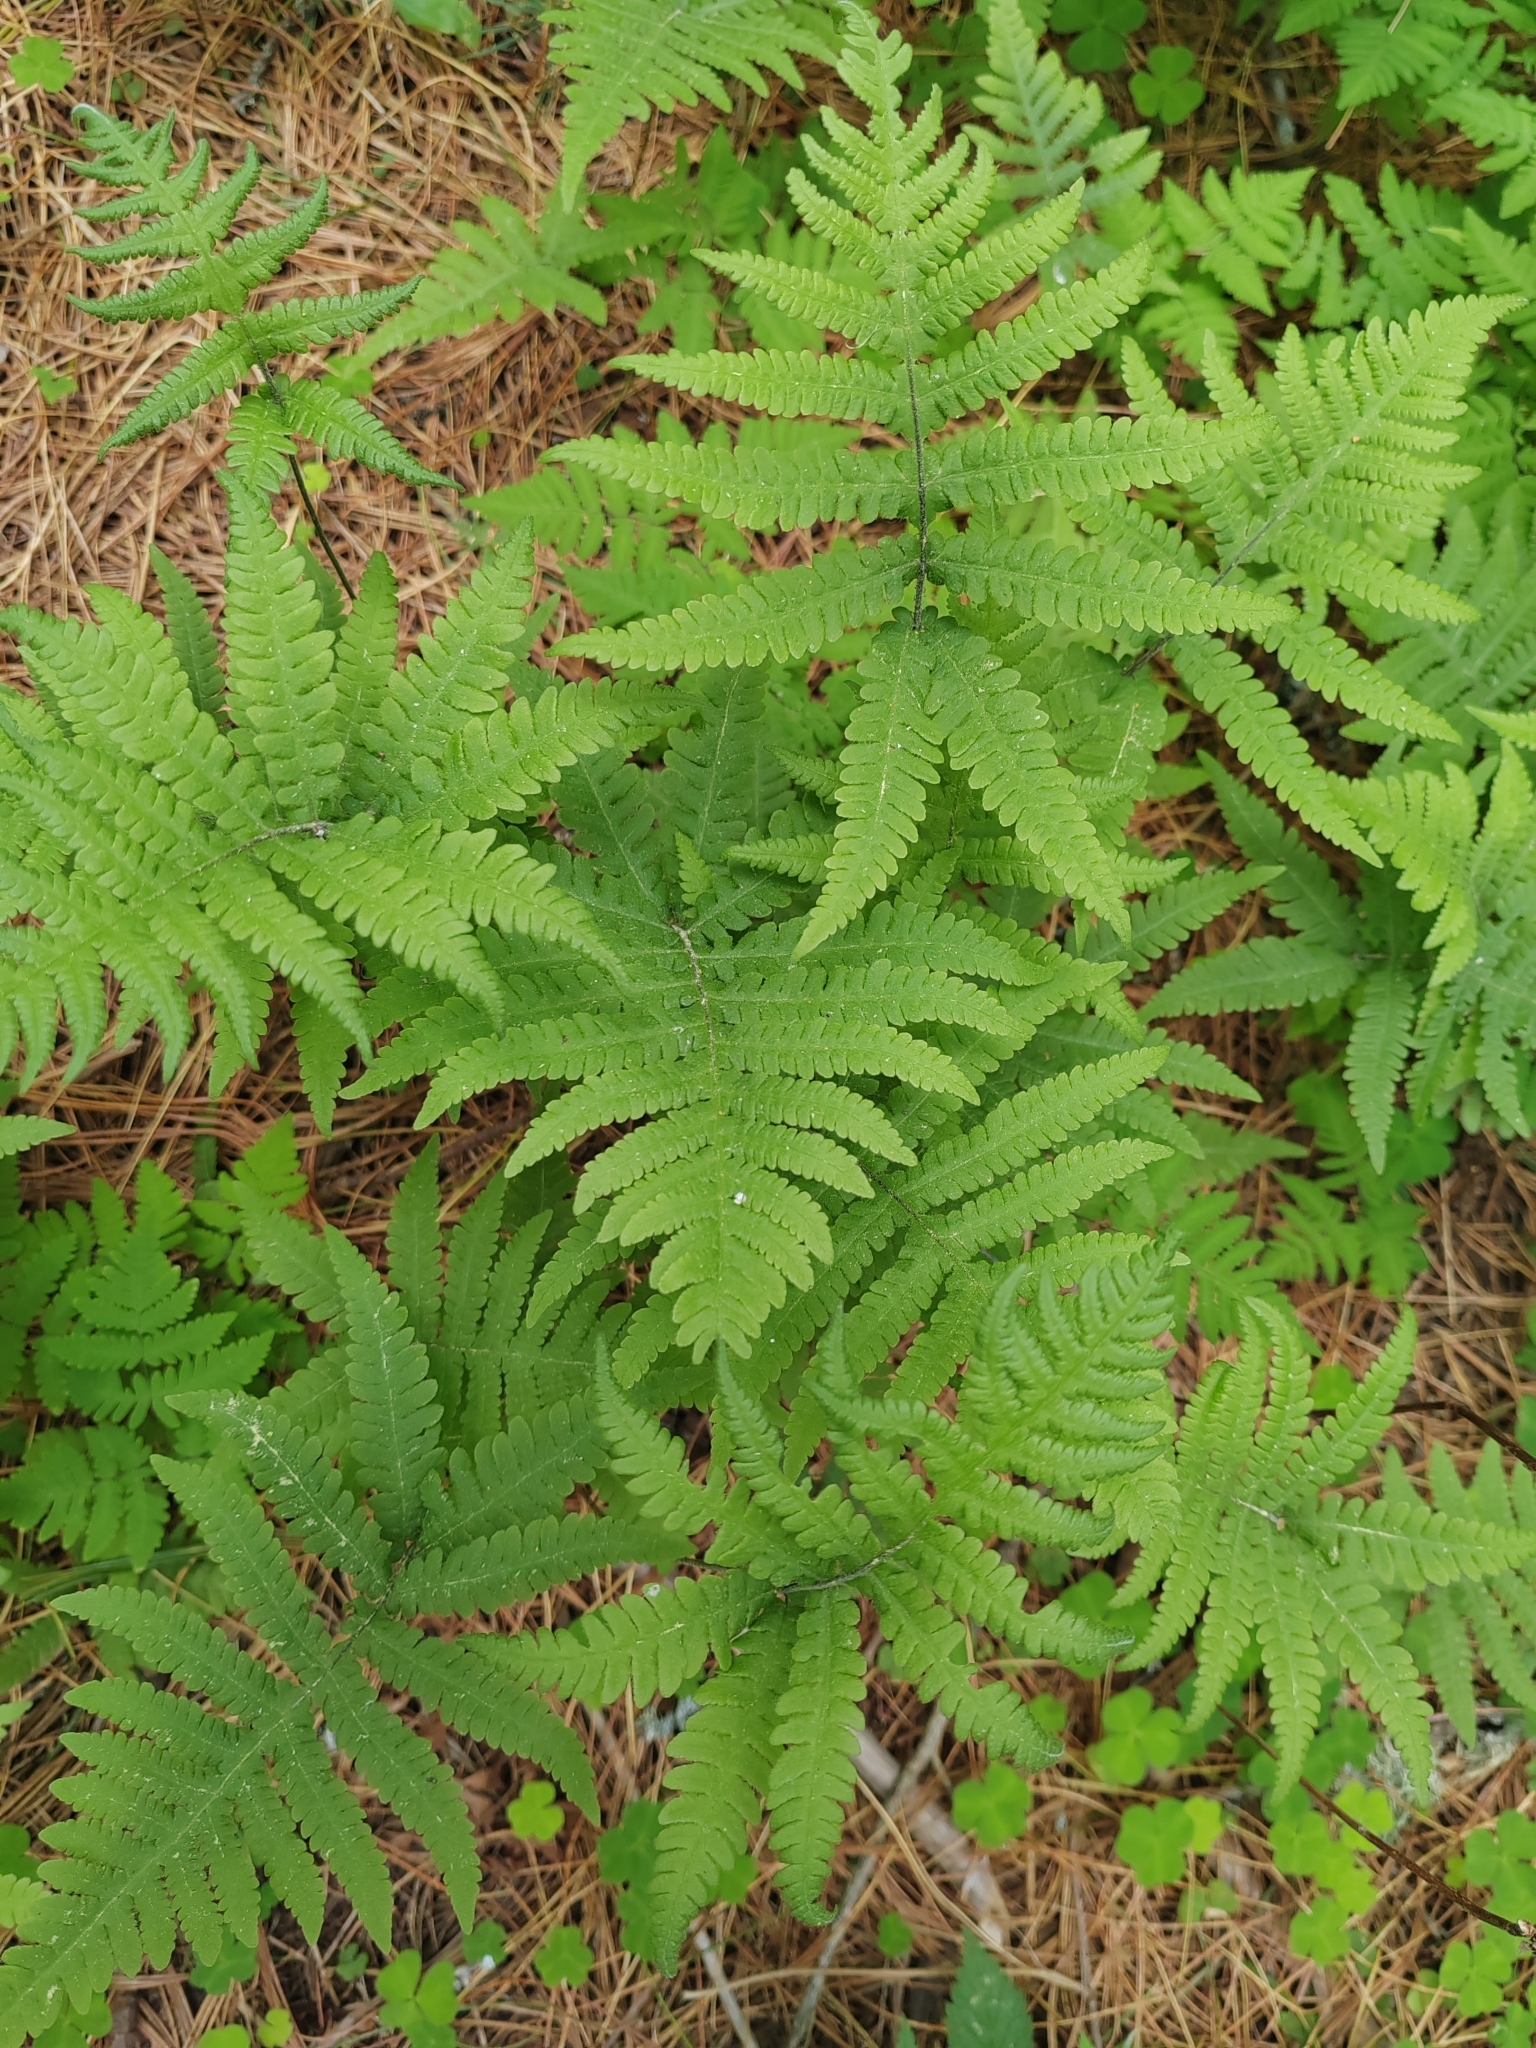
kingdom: Plantae
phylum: Tracheophyta
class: Polypodiopsida
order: Polypodiales
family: Thelypteridaceae
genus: Phegopteris
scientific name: Phegopteris connectilis
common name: Beech fern
